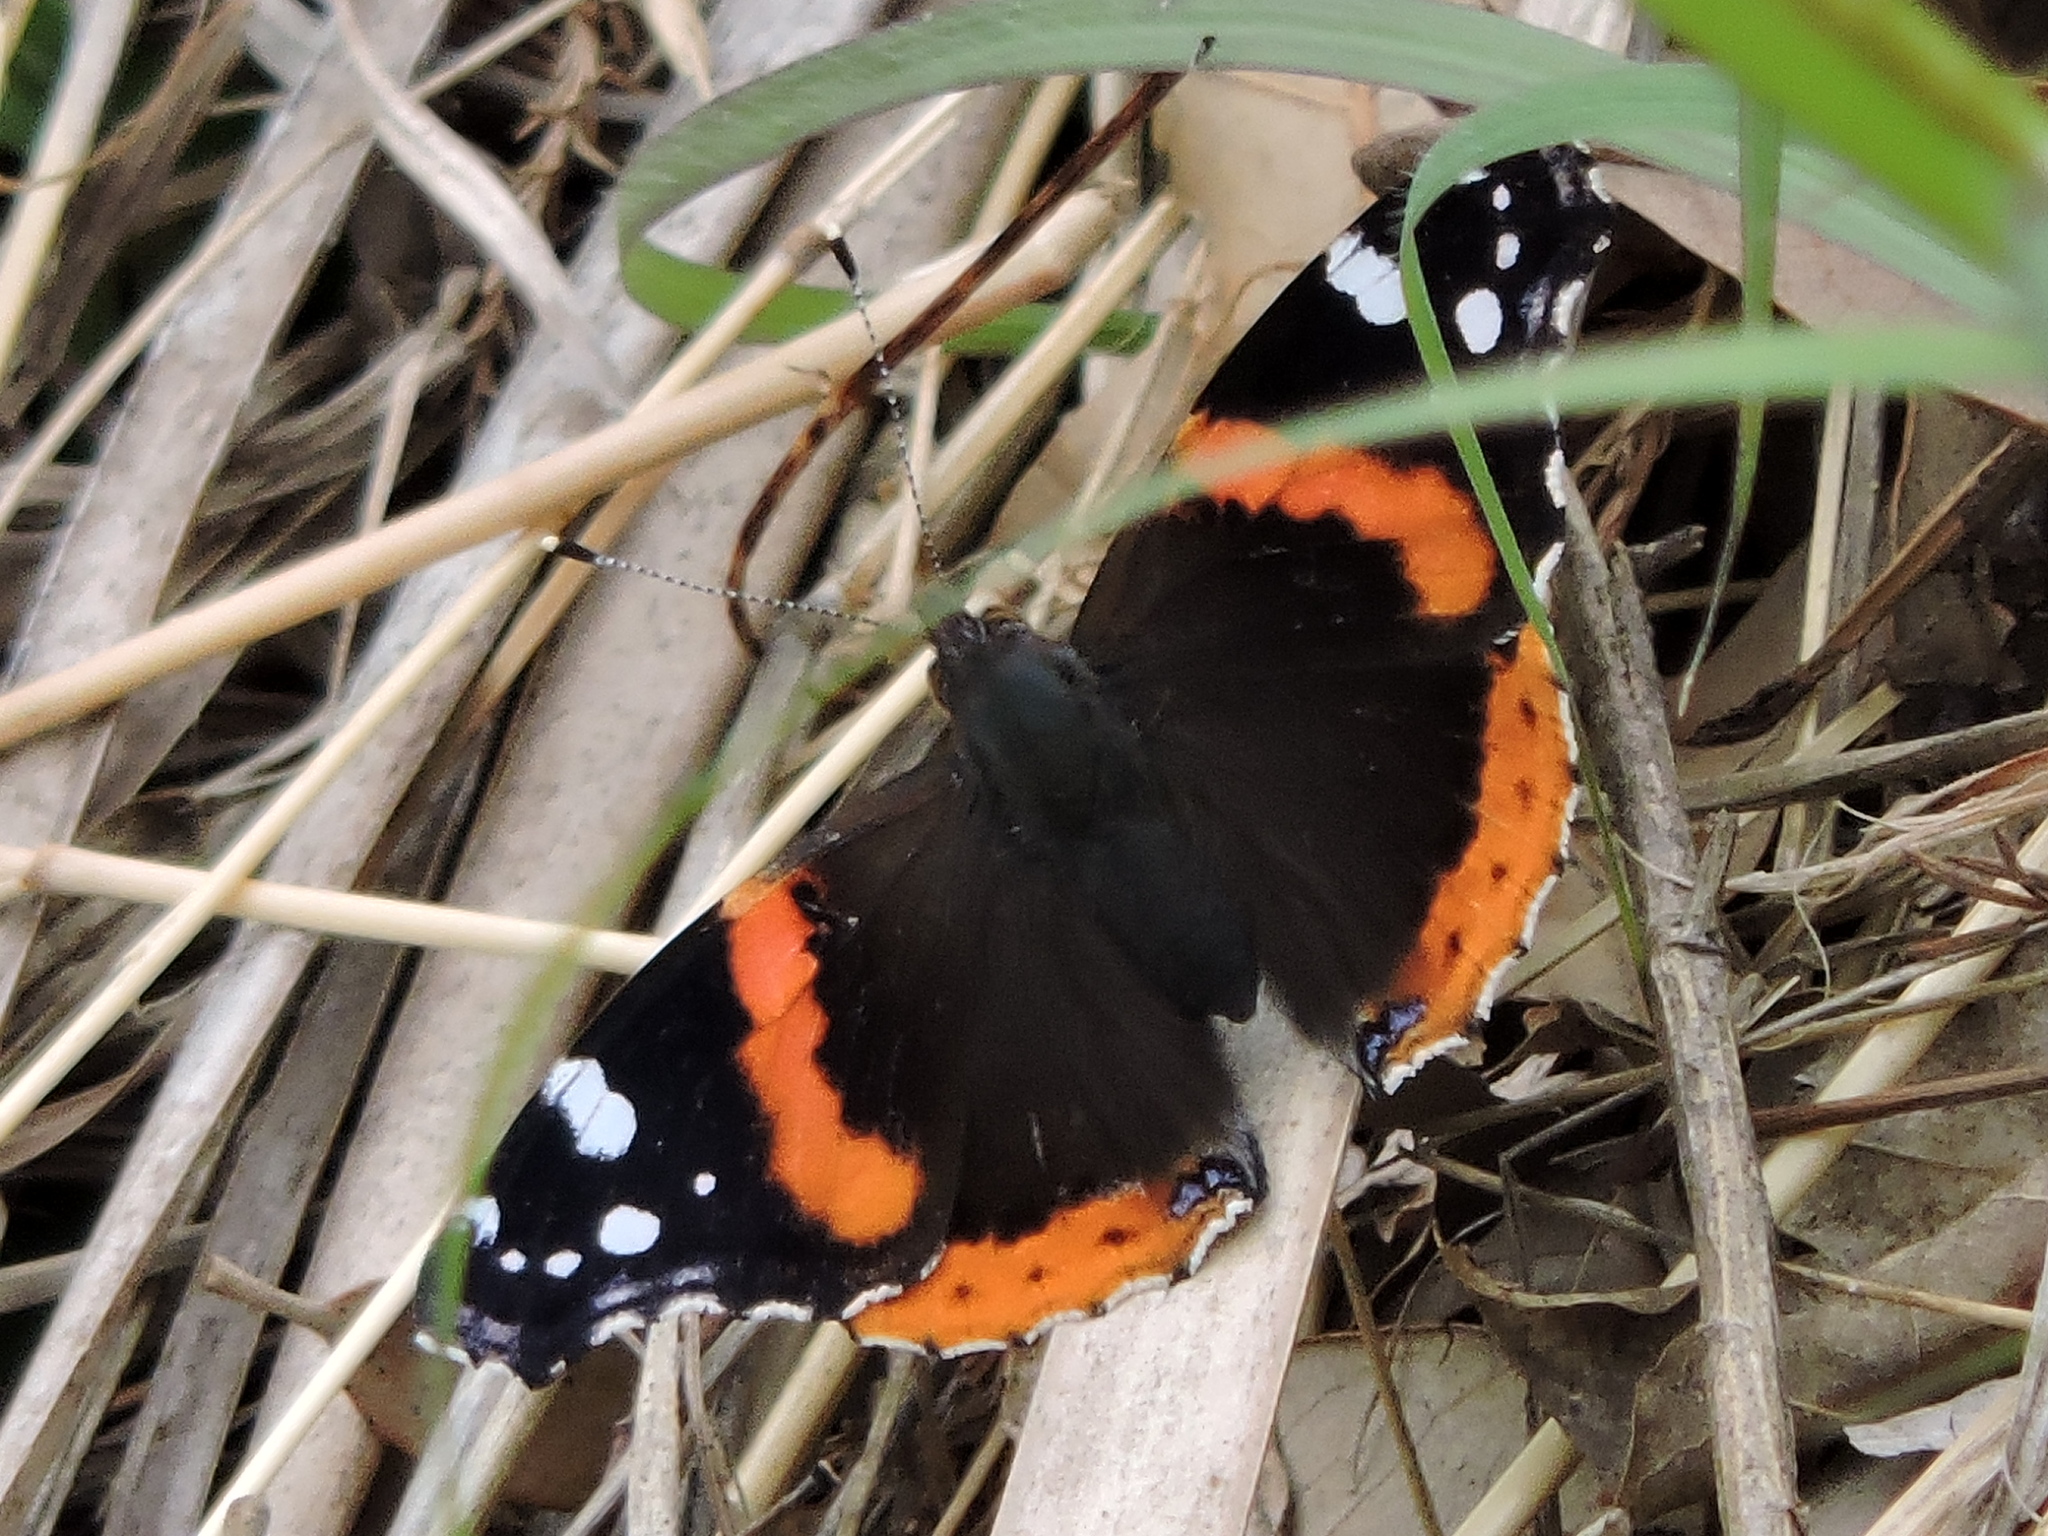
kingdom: Animalia
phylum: Arthropoda
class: Insecta
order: Lepidoptera
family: Nymphalidae
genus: Vanessa
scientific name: Vanessa atalanta
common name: Red admiral
